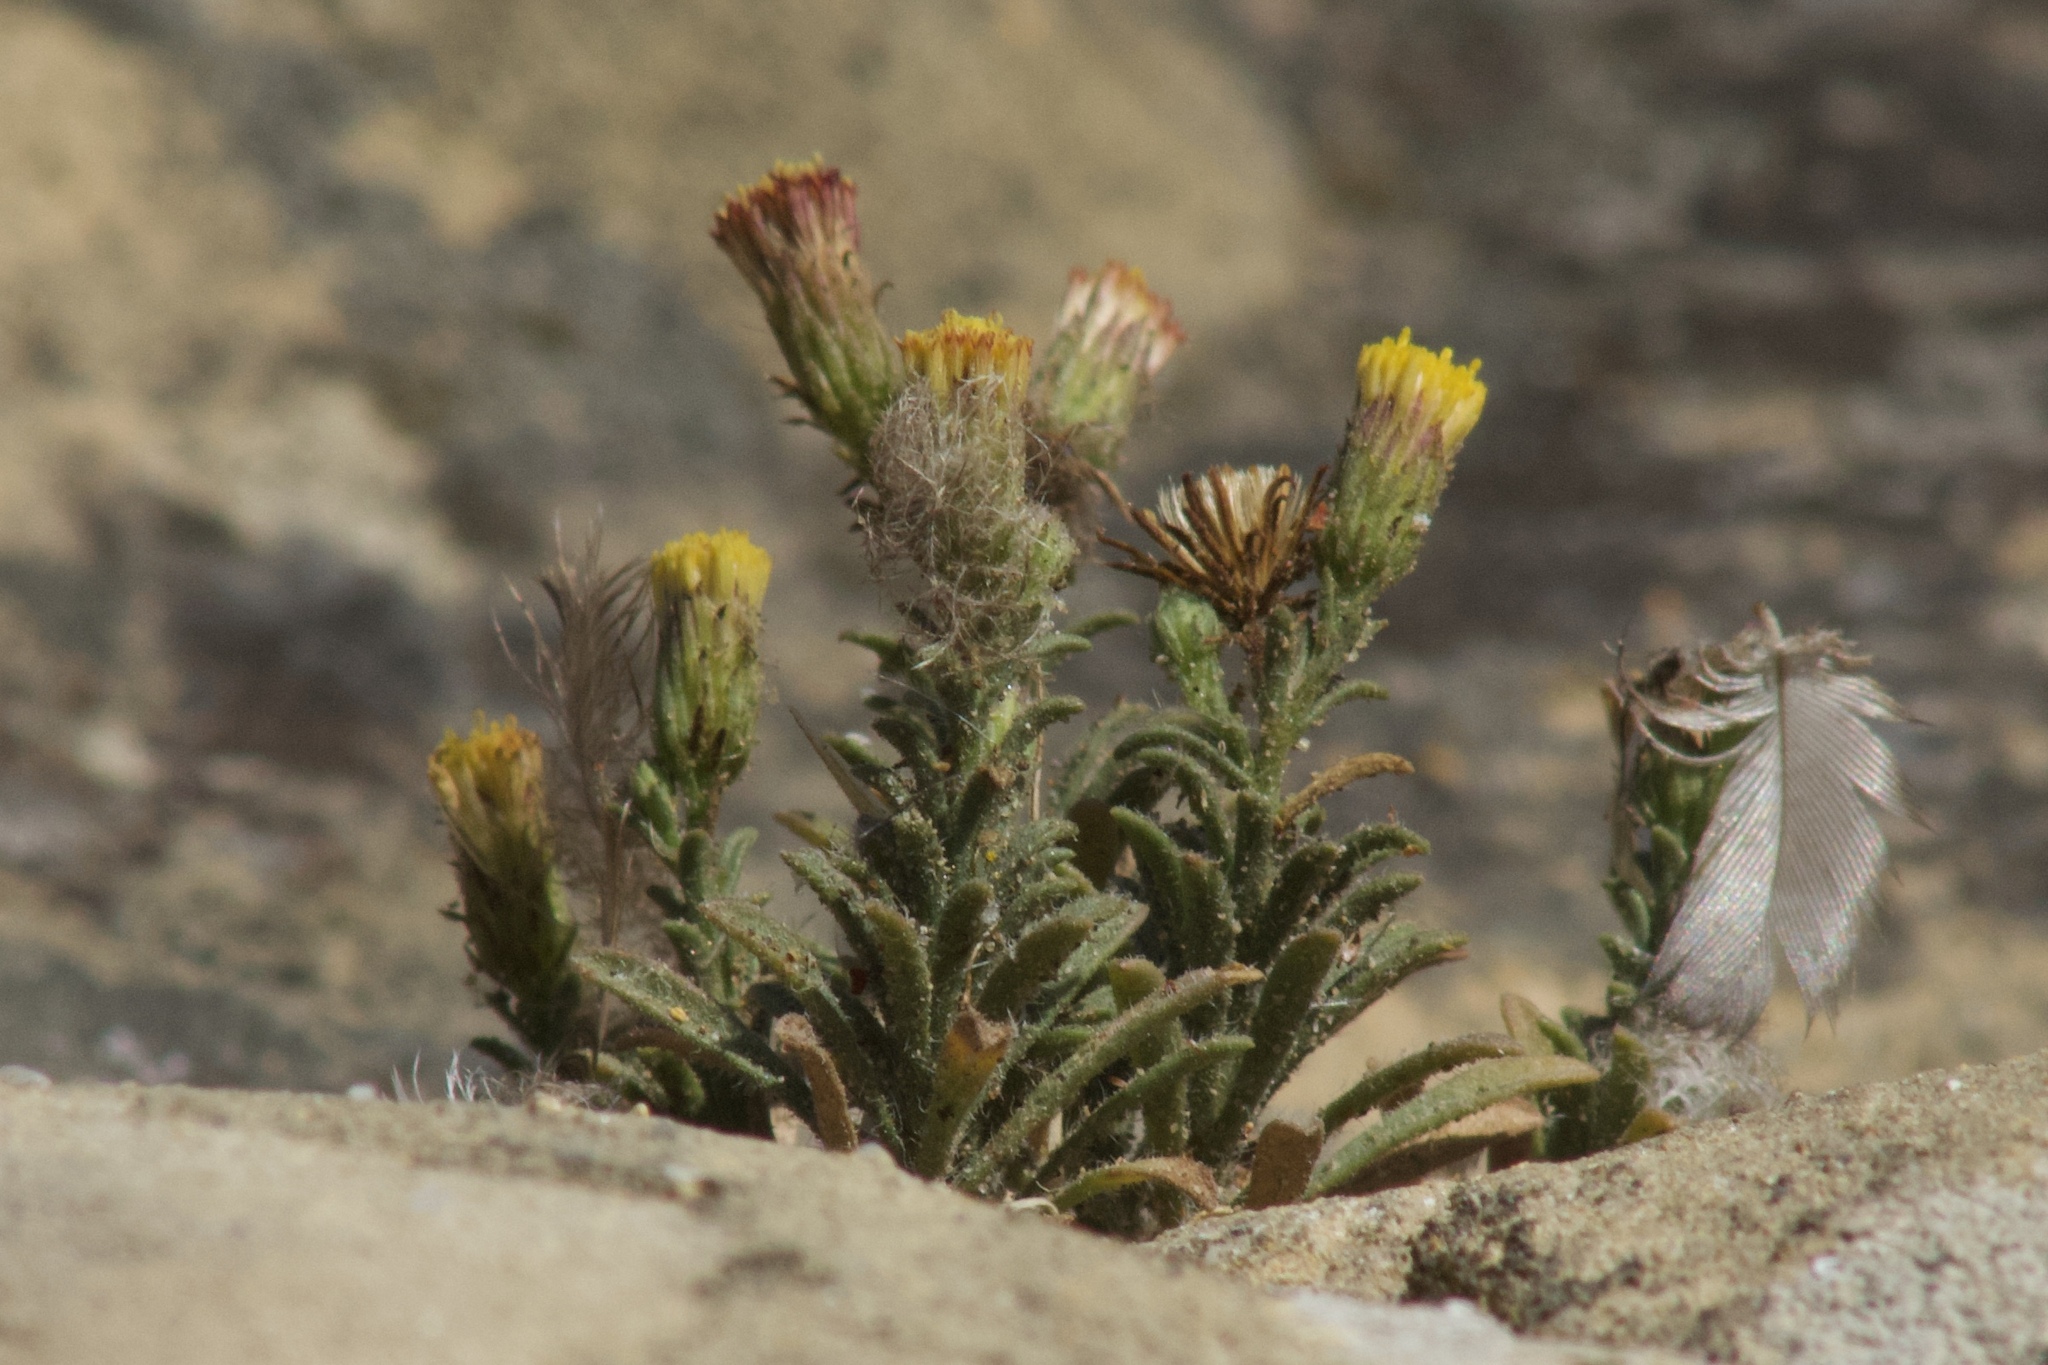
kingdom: Plantae
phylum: Tracheophyta
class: Magnoliopsida
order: Asterales
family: Asteraceae
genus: Erigeron
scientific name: Erigeron petrophilus
